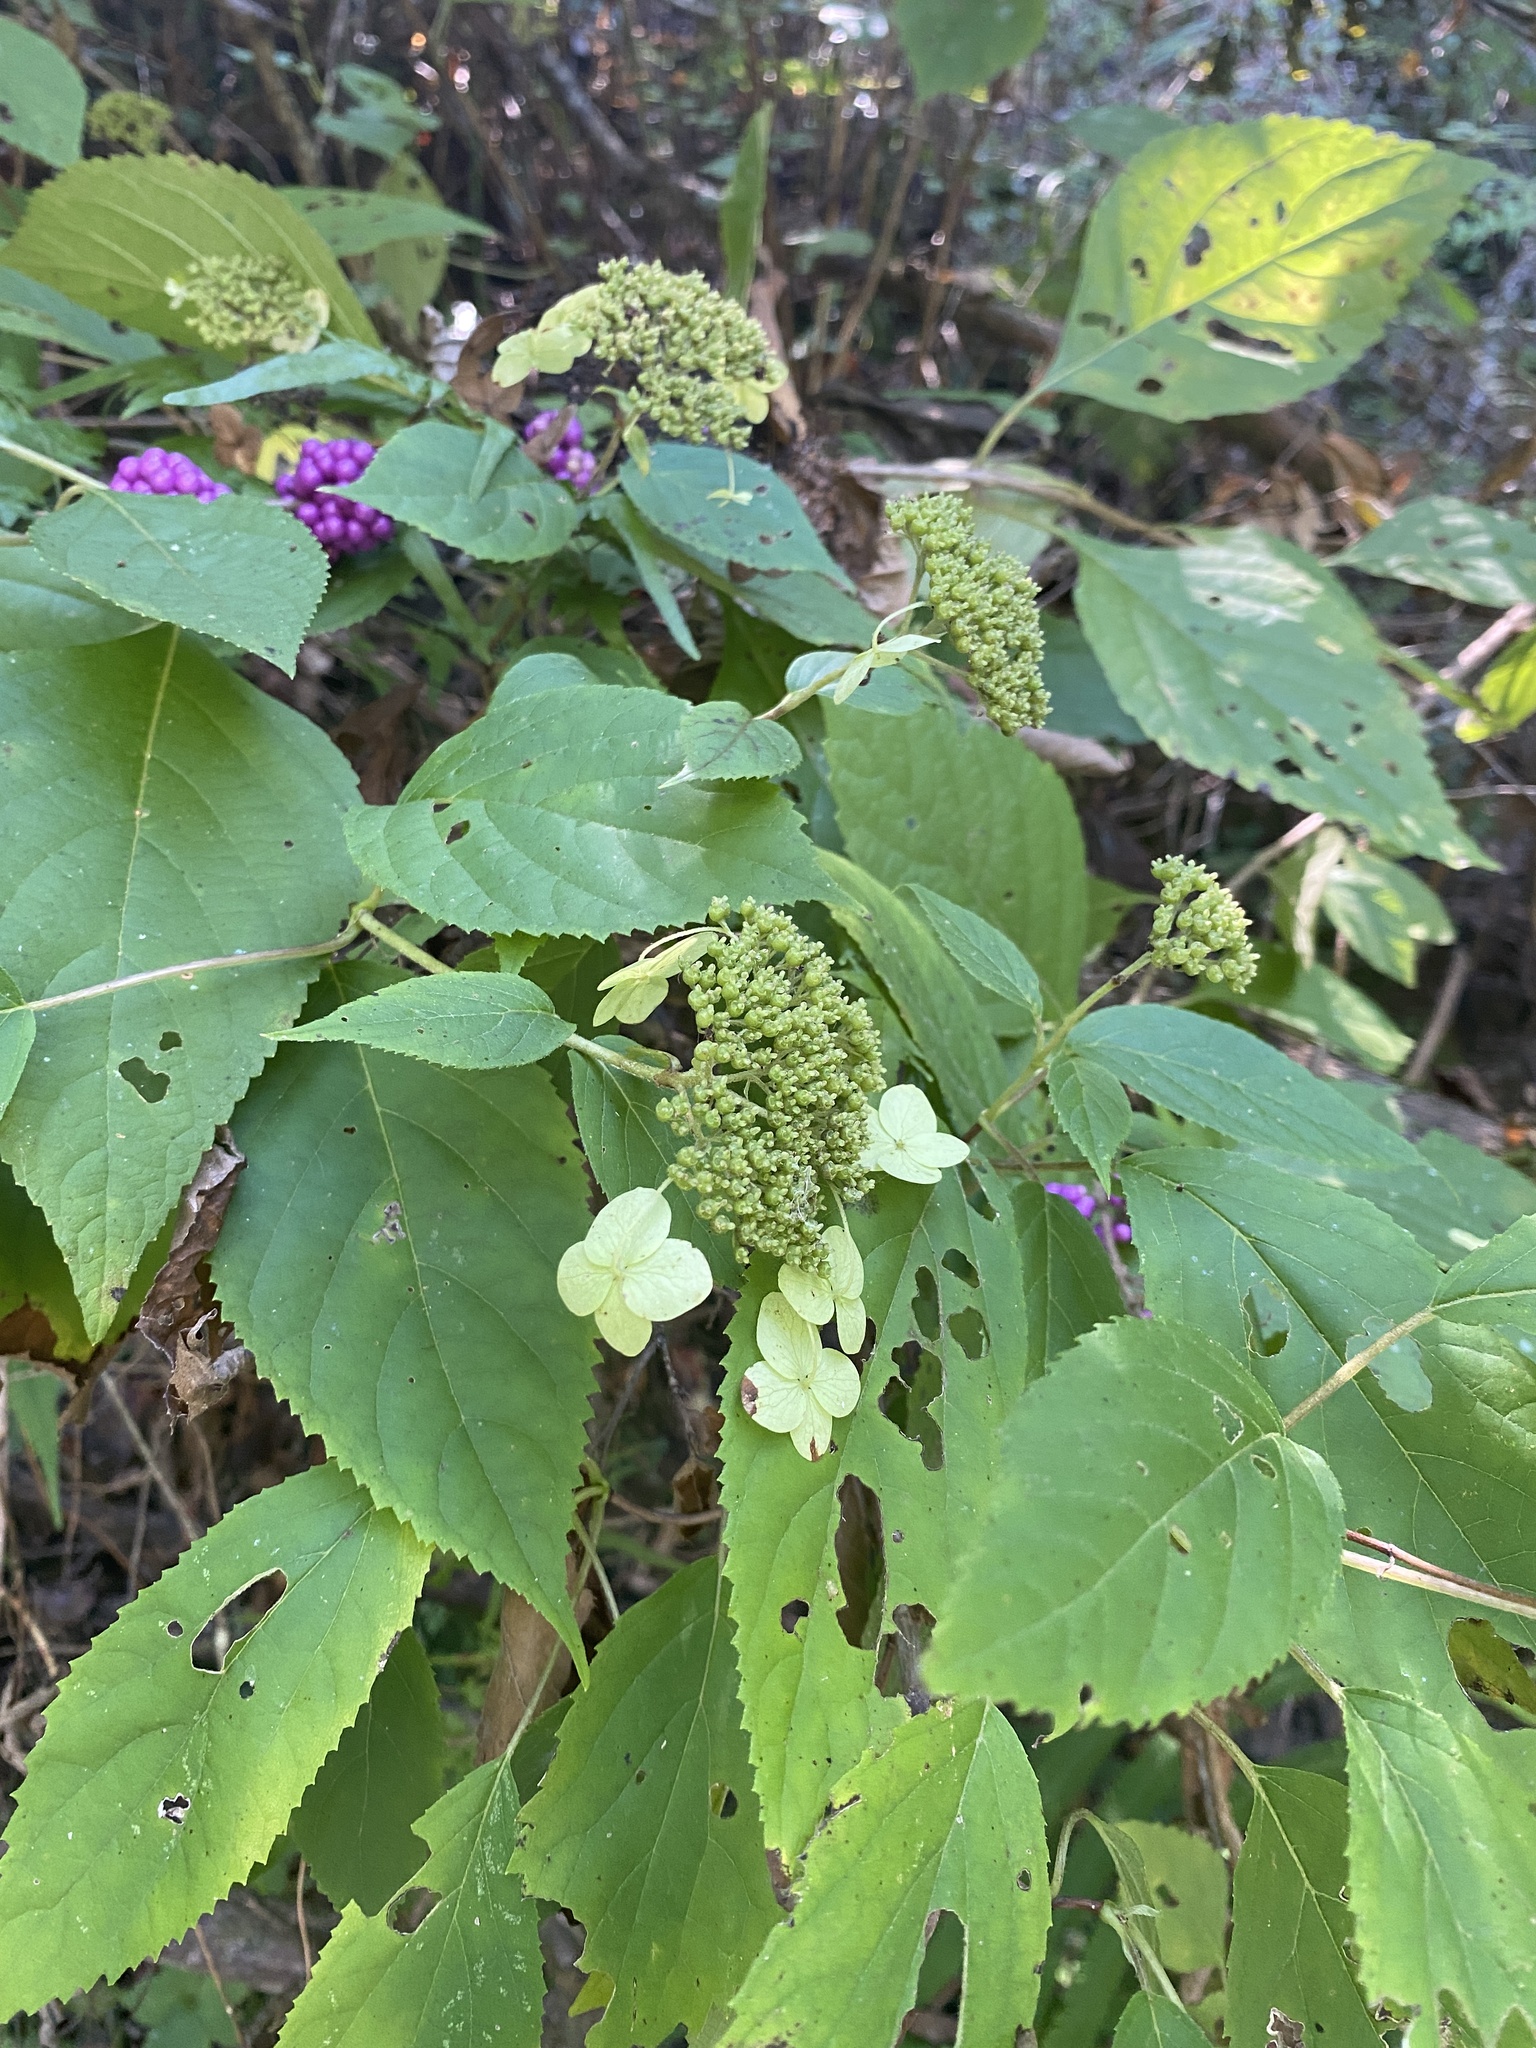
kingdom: Plantae
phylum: Tracheophyta
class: Magnoliopsida
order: Cornales
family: Hydrangeaceae
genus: Hydrangea
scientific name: Hydrangea arborescens
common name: Sevenbark
